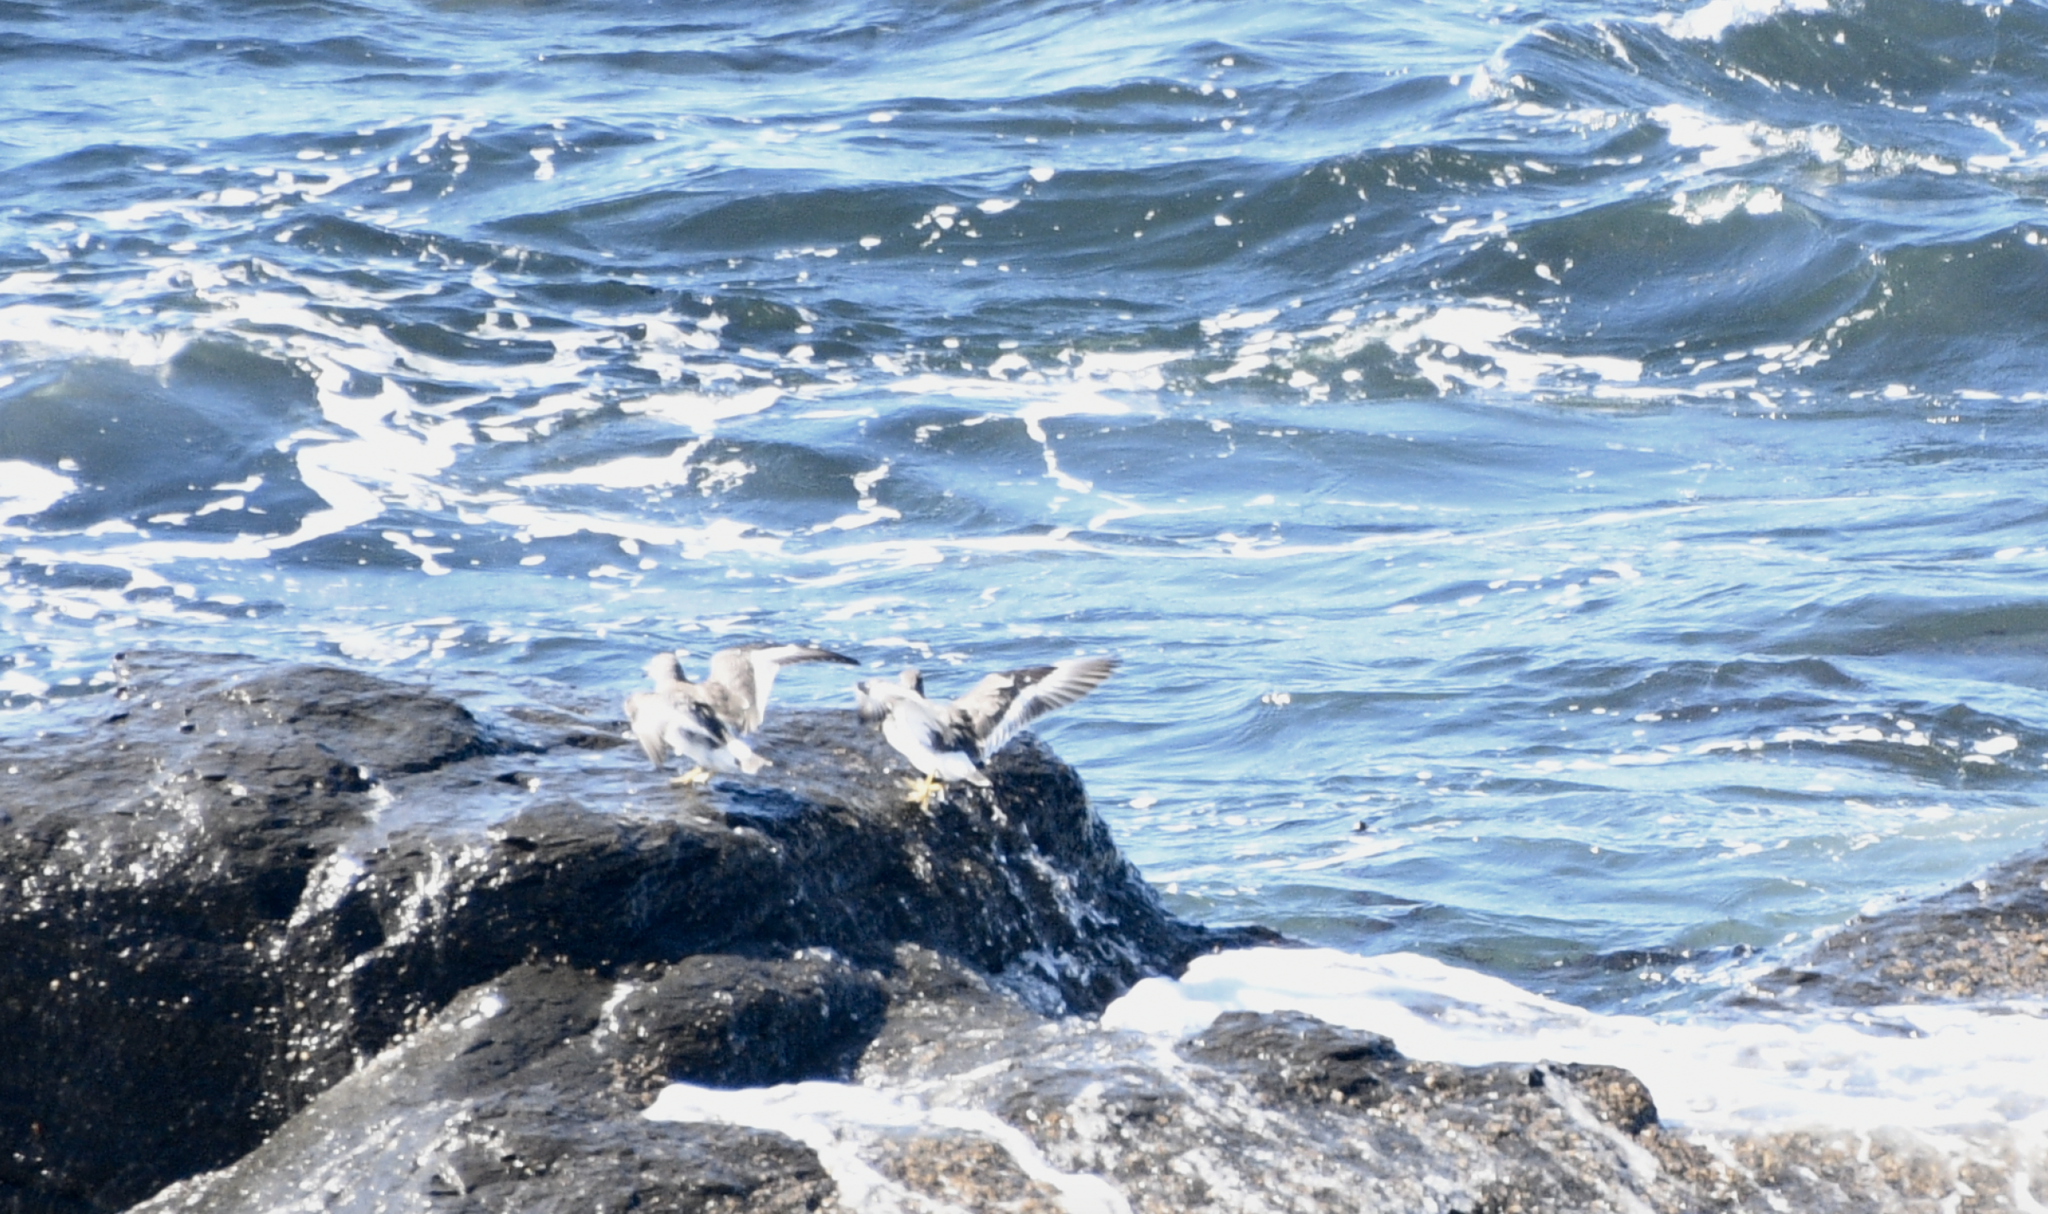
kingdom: Animalia
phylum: Chordata
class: Aves
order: Charadriiformes
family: Scolopacidae
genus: Calidris
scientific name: Calidris virgata
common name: Surfbird
